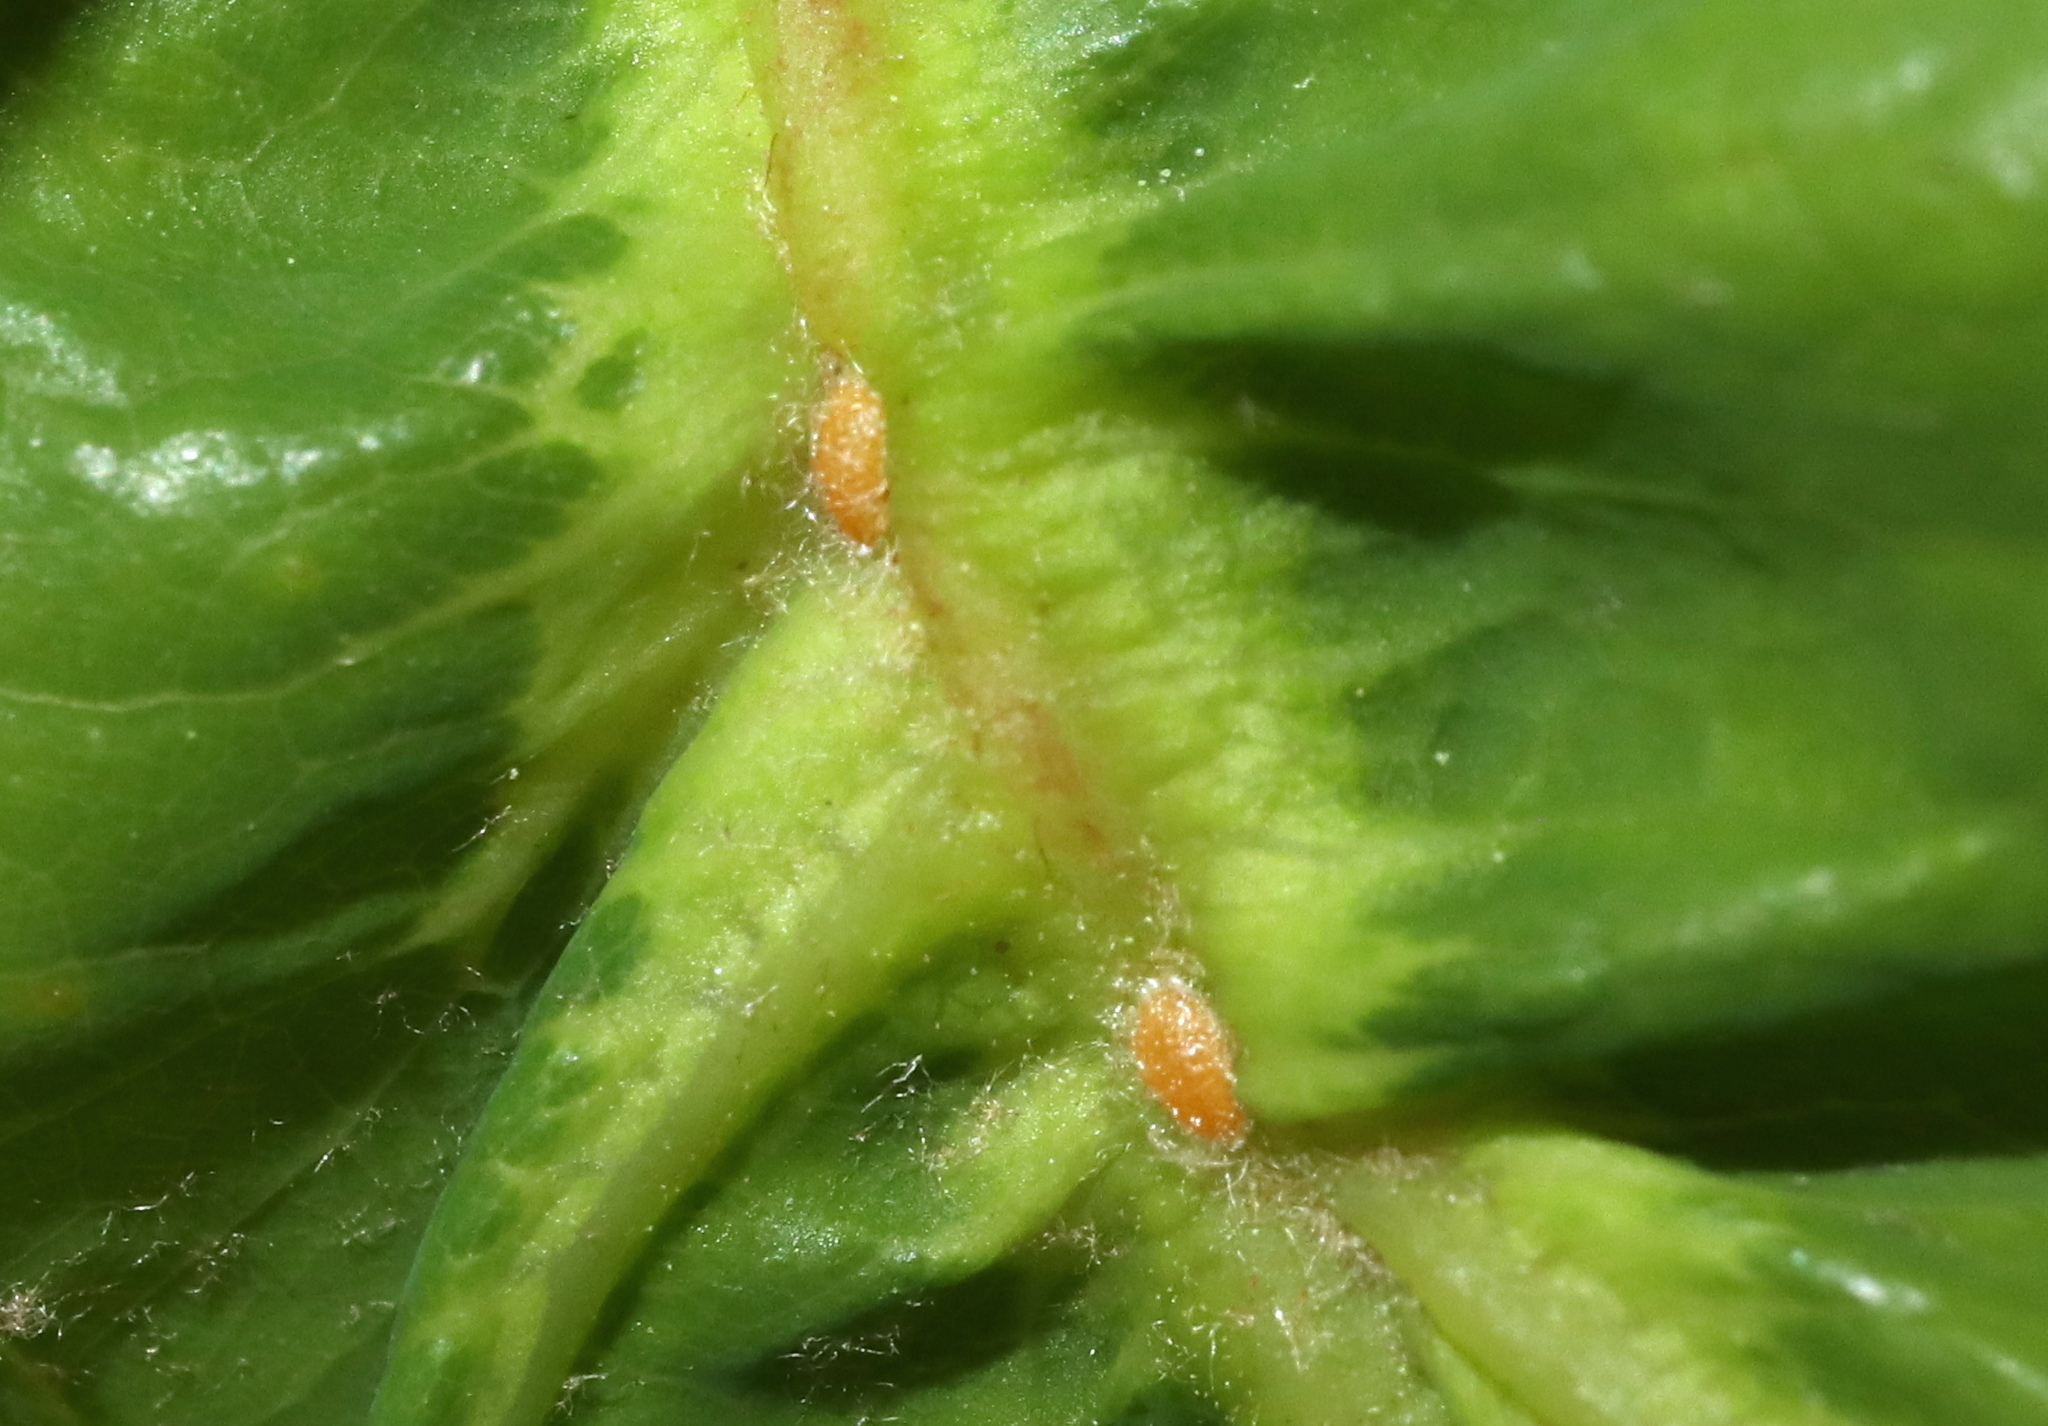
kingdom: Animalia
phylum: Arthropoda
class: Insecta
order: Hemiptera
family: Kermesidae
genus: Nanokermes
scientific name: Nanokermes folium
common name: Leaf kermes
